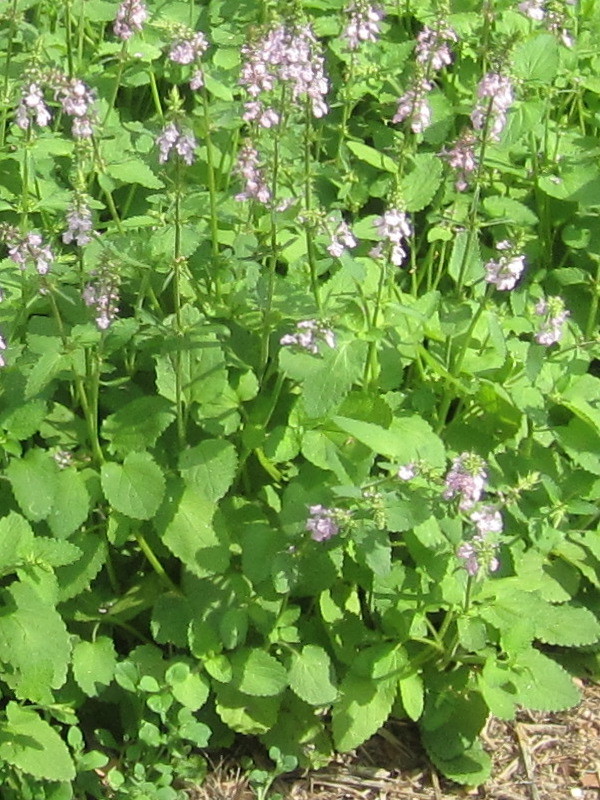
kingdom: Plantae
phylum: Tracheophyta
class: Magnoliopsida
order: Lamiales
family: Lamiaceae
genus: Stachys
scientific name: Stachys drummondii
